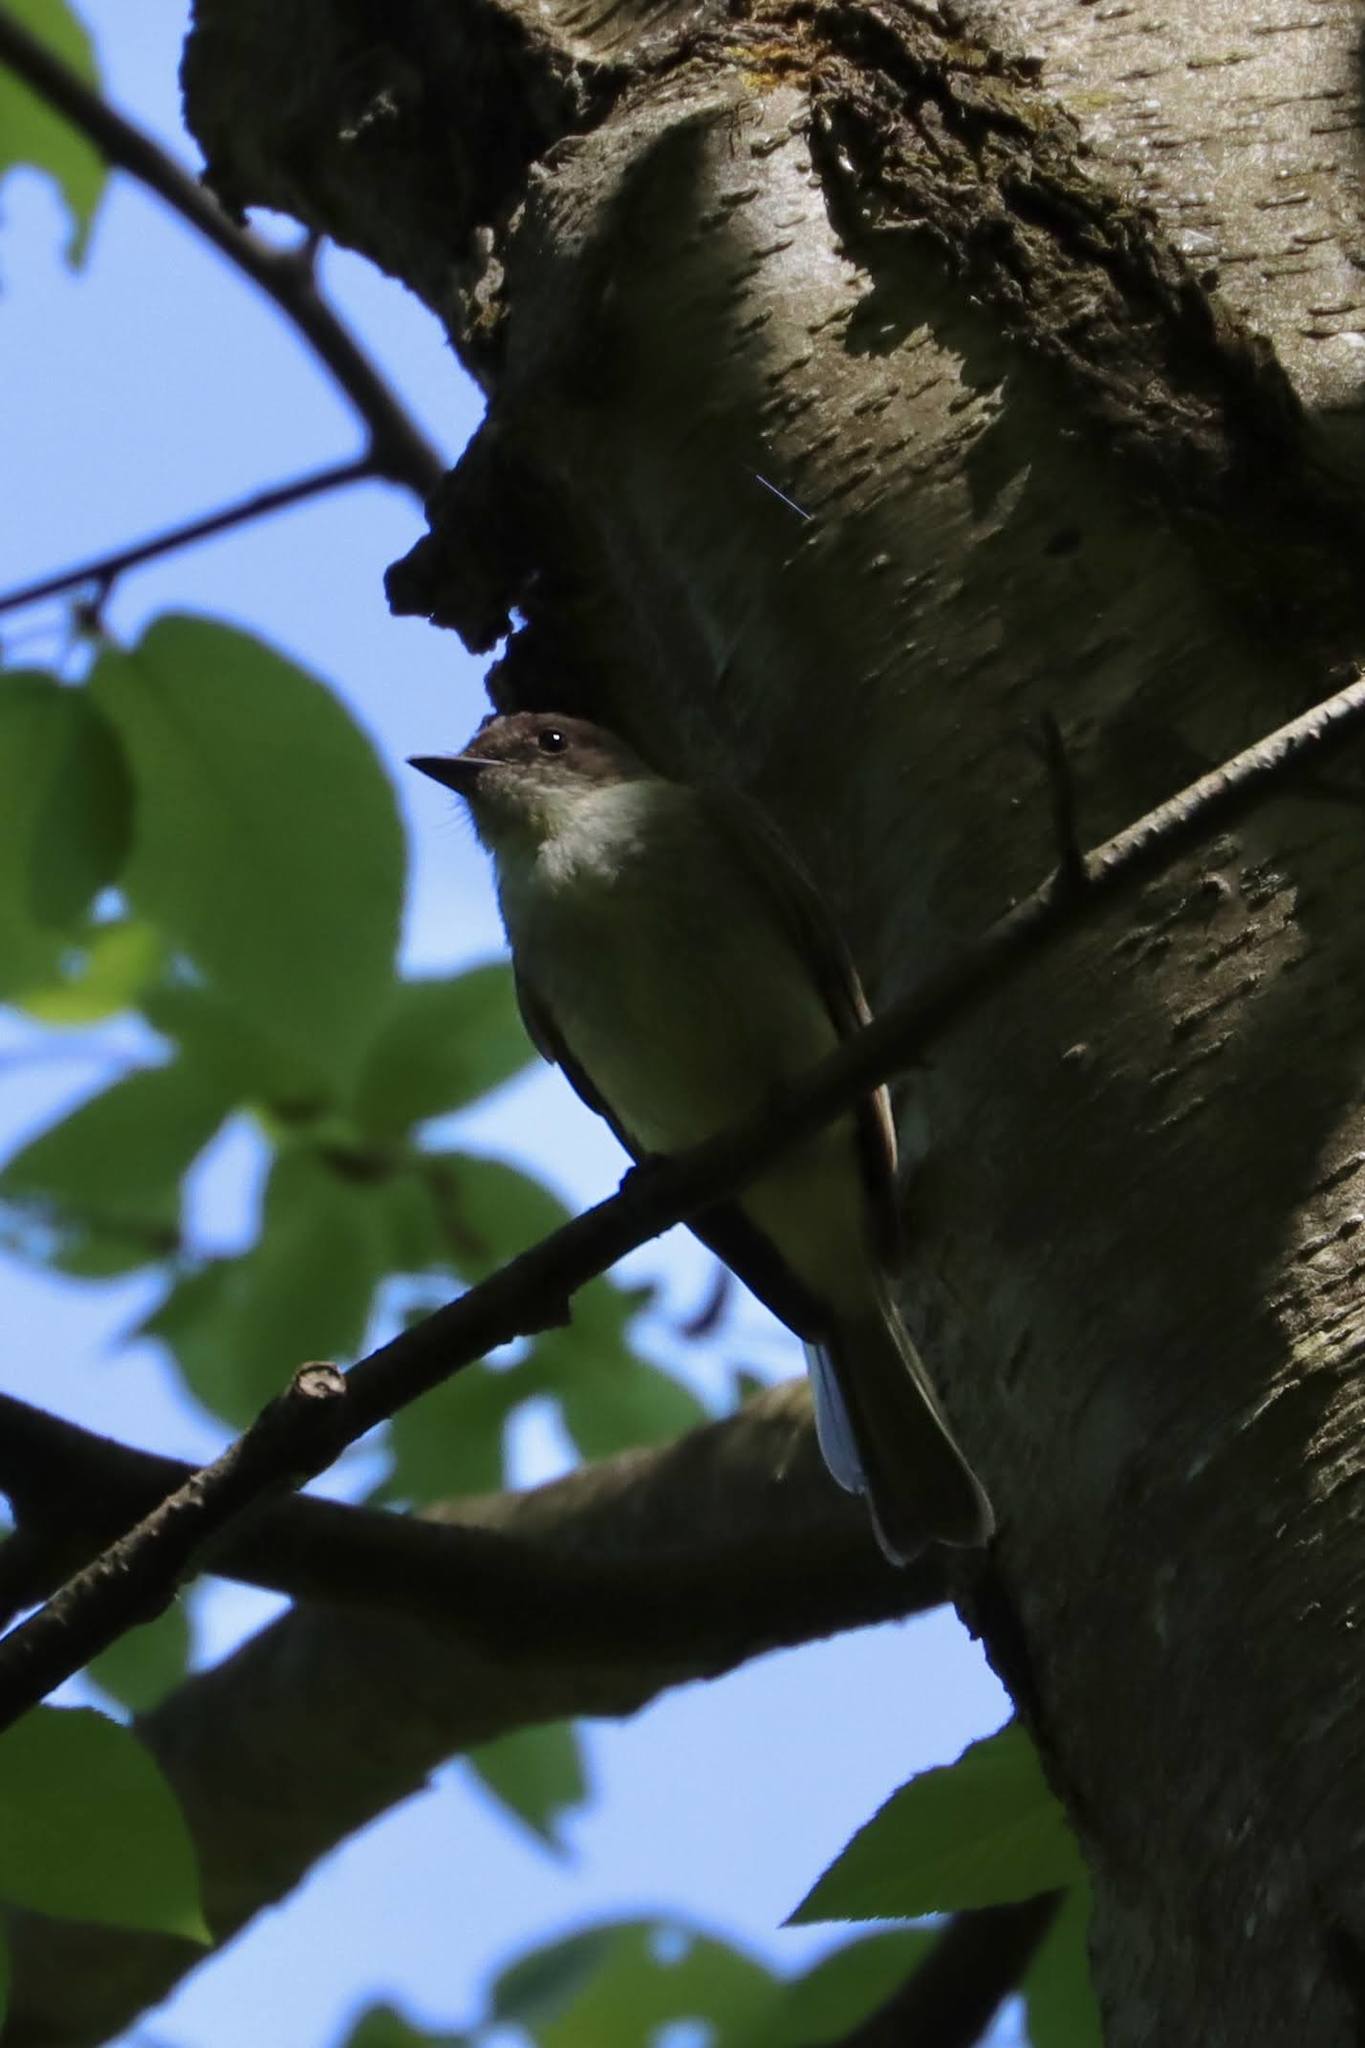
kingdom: Animalia
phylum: Chordata
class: Aves
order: Passeriformes
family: Tyrannidae
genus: Sayornis
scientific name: Sayornis phoebe
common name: Eastern phoebe
